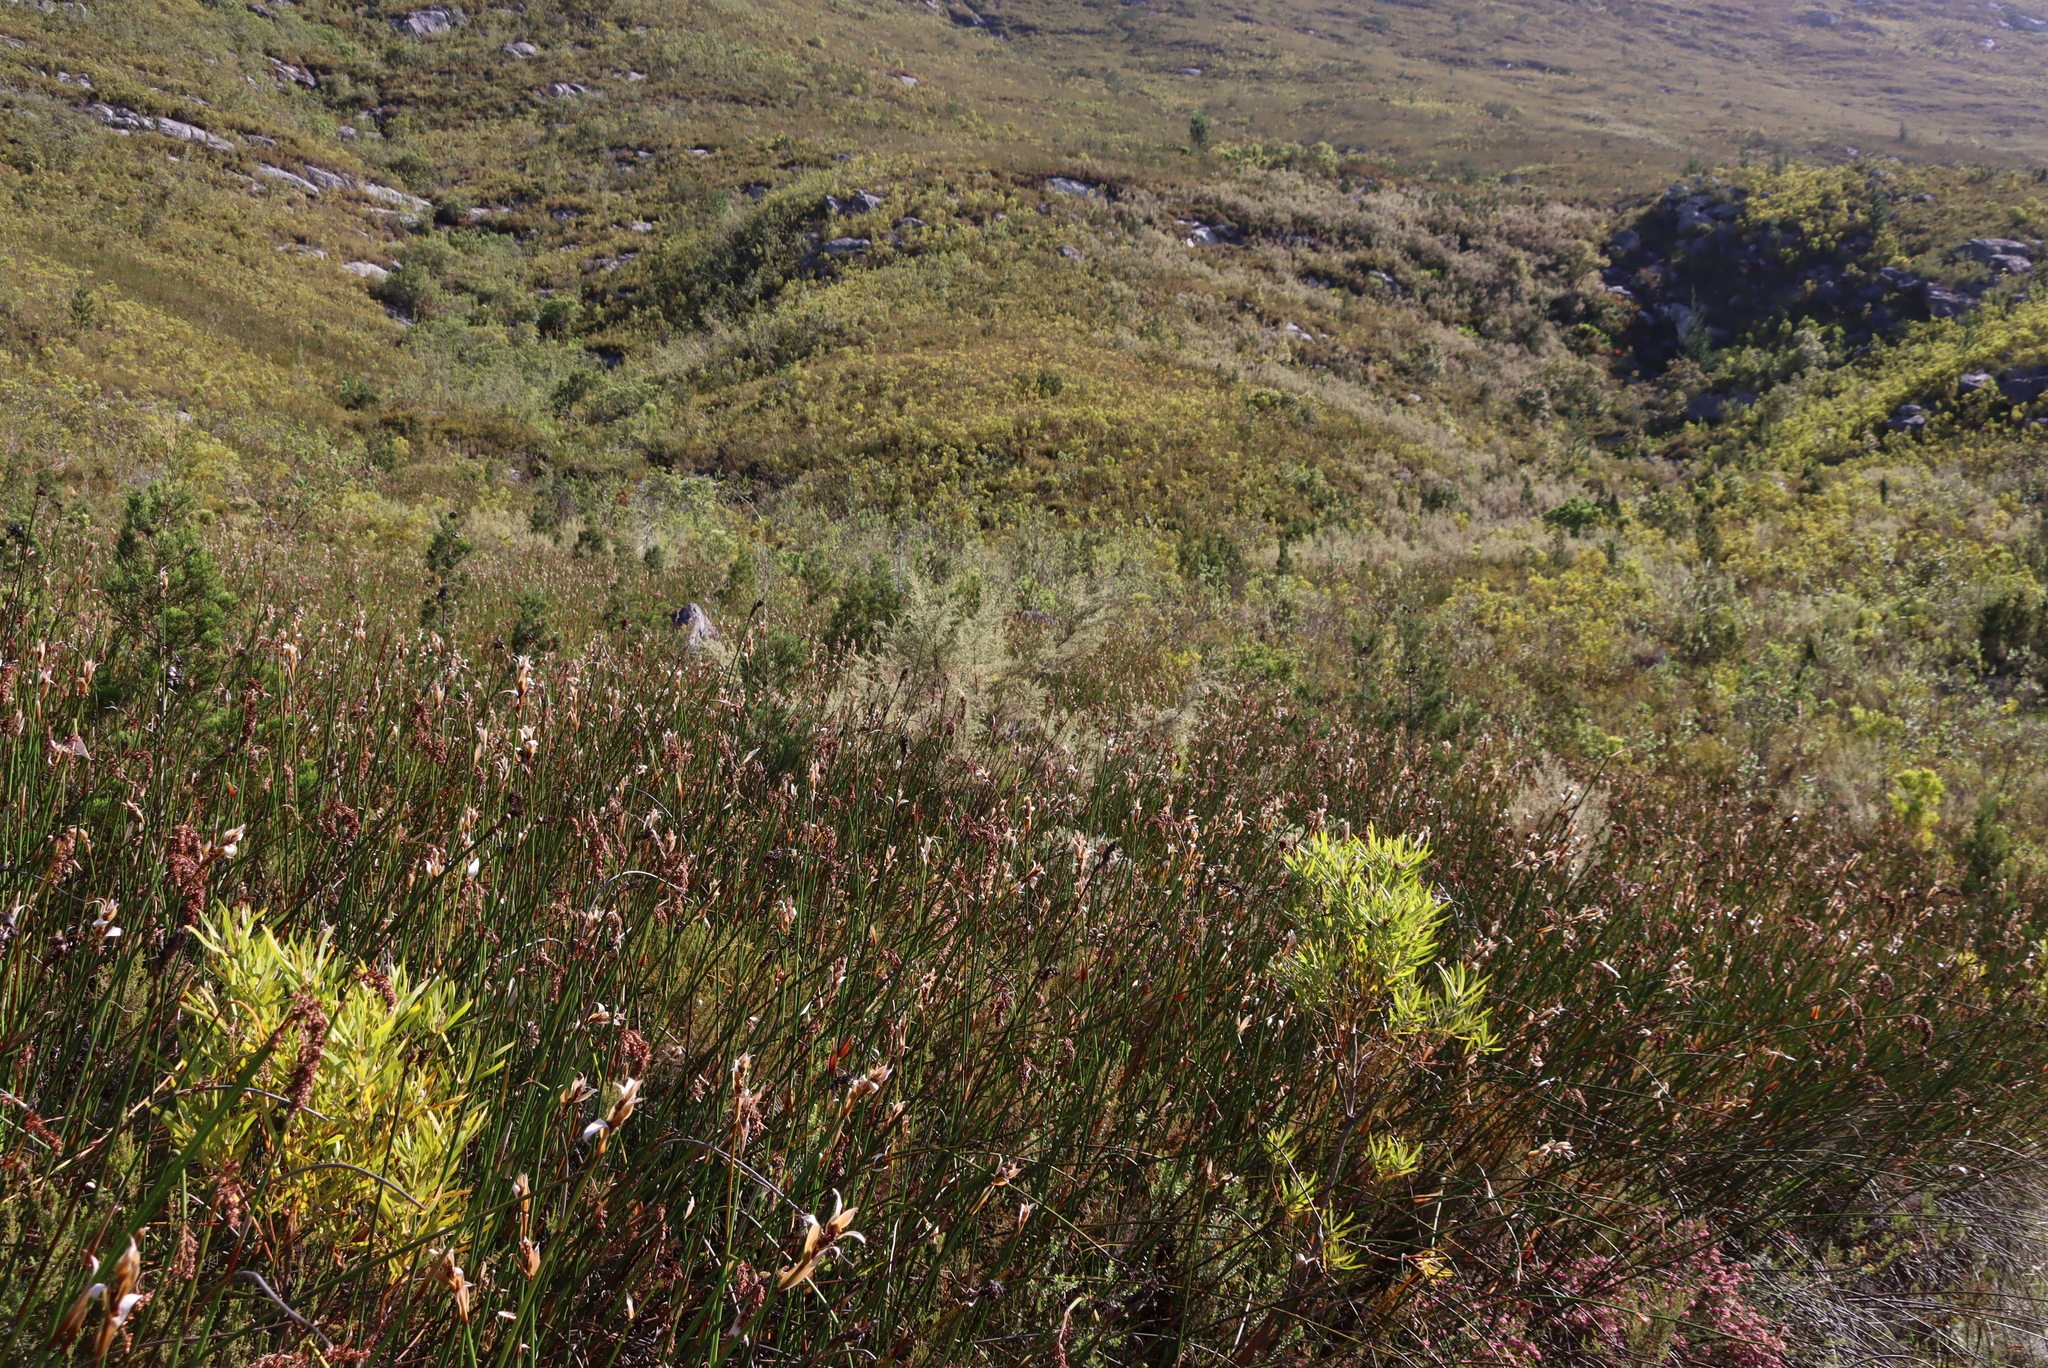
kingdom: Plantae
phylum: Tracheophyta
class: Magnoliopsida
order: Cornales
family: Grubbiaceae
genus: Grubbia
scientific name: Grubbia rosmarinifolia
